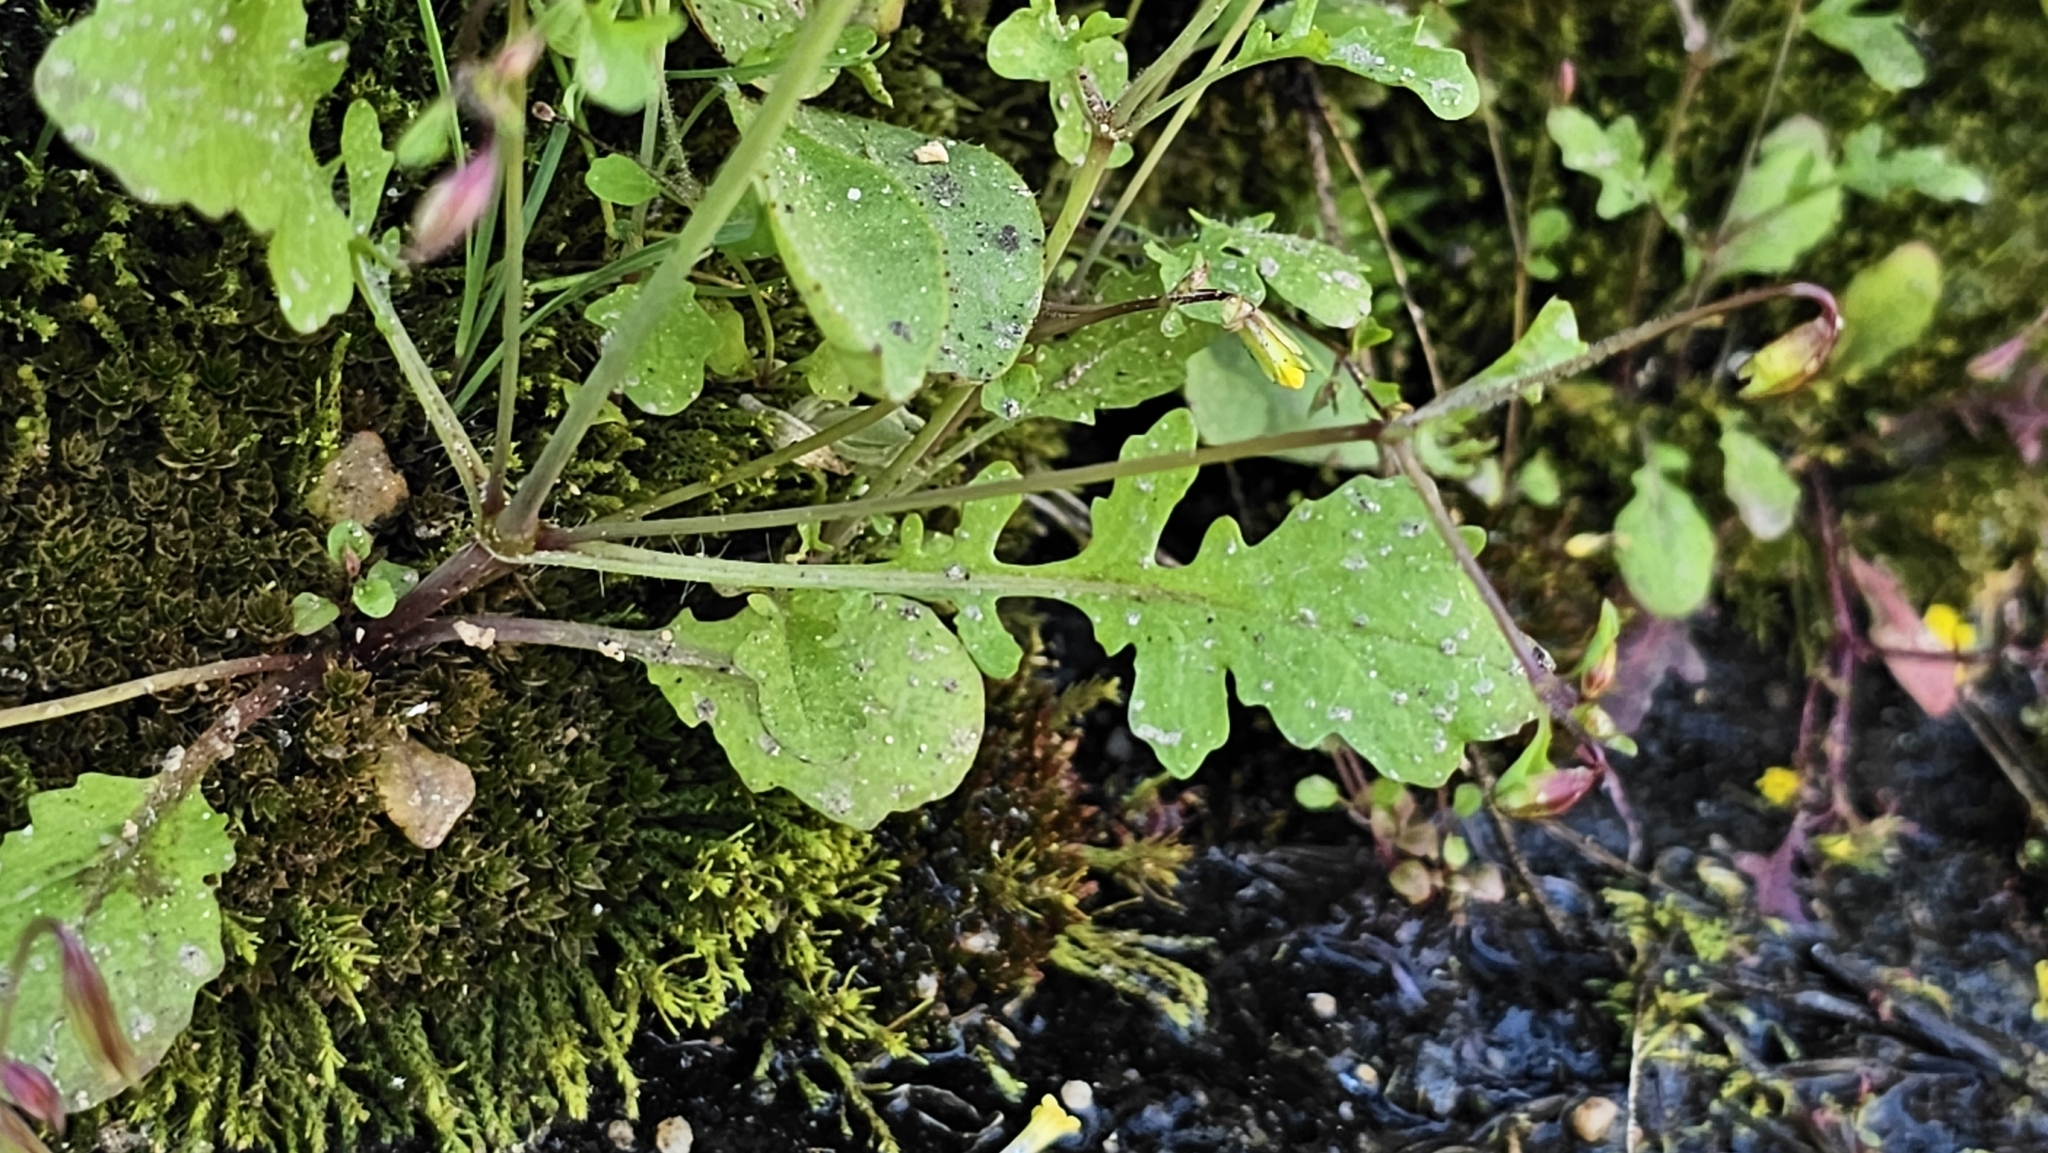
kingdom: Plantae
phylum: Tracheophyta
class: Magnoliopsida
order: Lamiales
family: Phrymaceae
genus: Erythranthe
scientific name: Erythranthe laciniata
